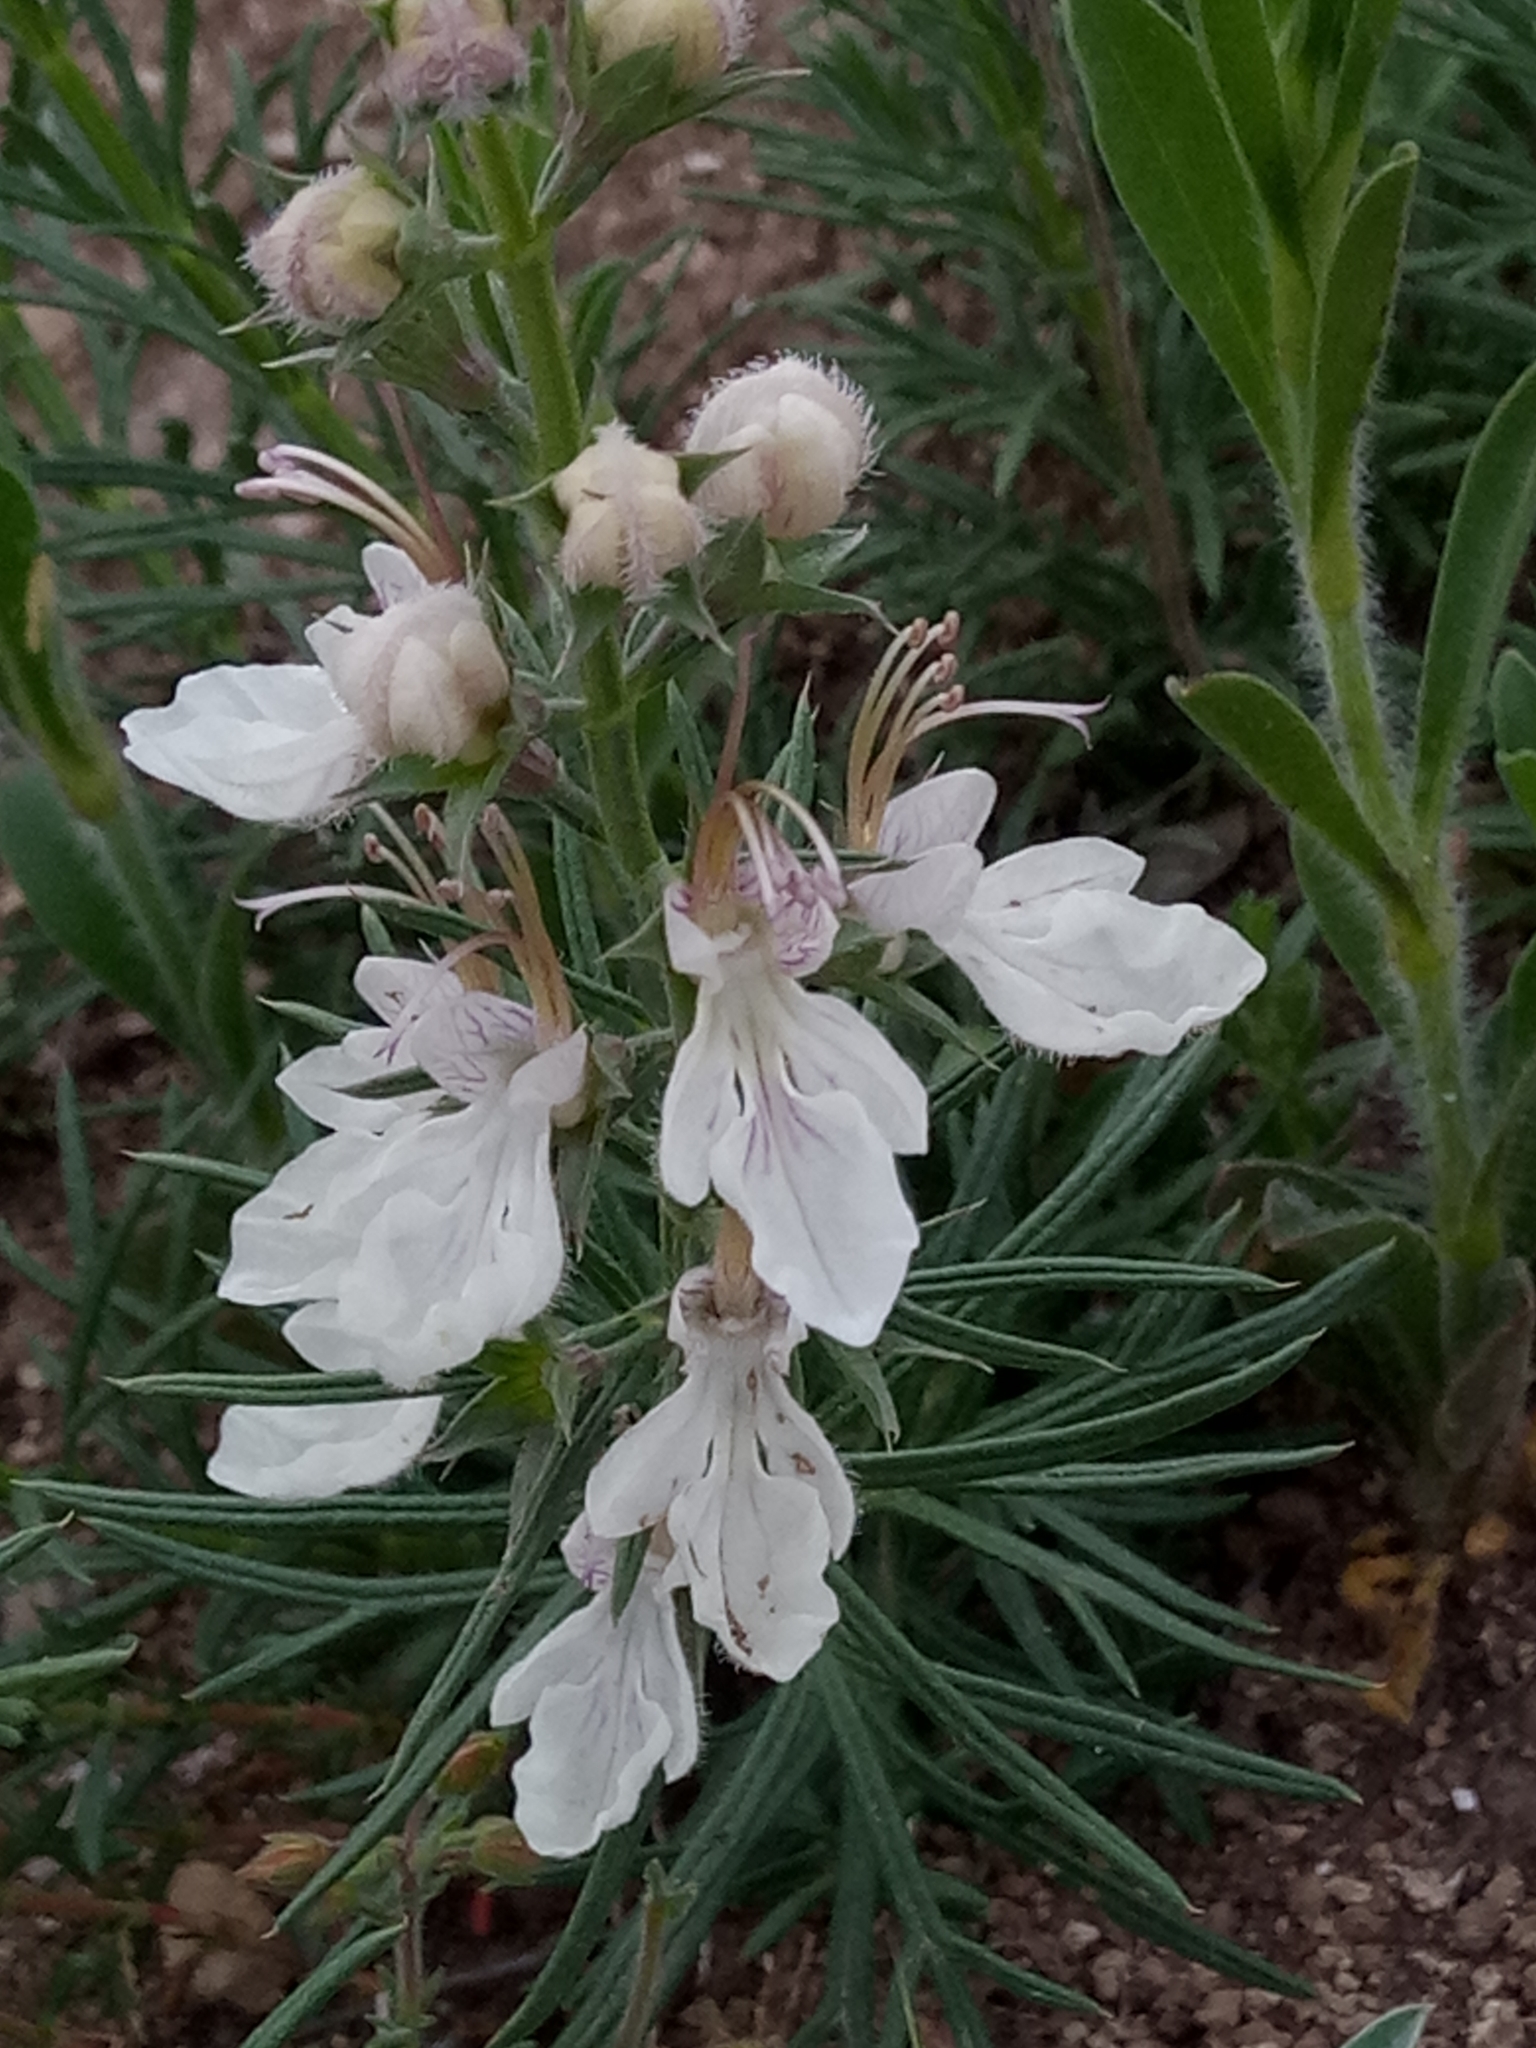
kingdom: Plantae
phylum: Tracheophyta
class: Magnoliopsida
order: Lamiales
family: Lamiaceae
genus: Teucrium
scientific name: Teucrium pseudochamaepitys
